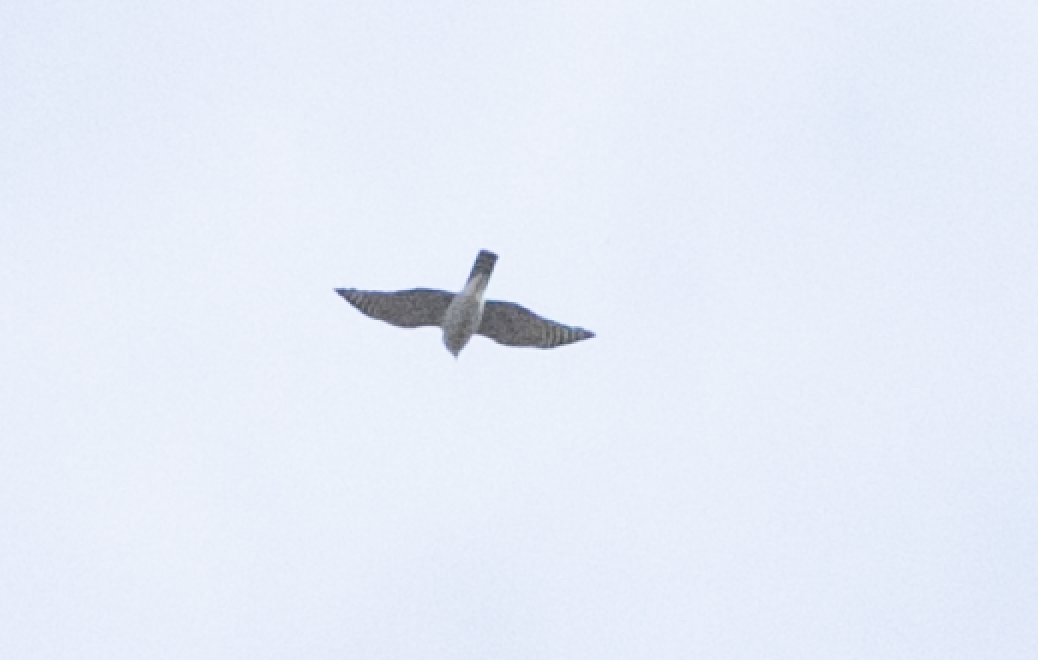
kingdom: Animalia
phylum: Chordata
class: Aves
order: Accipitriformes
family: Accipitridae
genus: Accipiter
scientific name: Accipiter nisus
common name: Eurasian sparrowhawk
